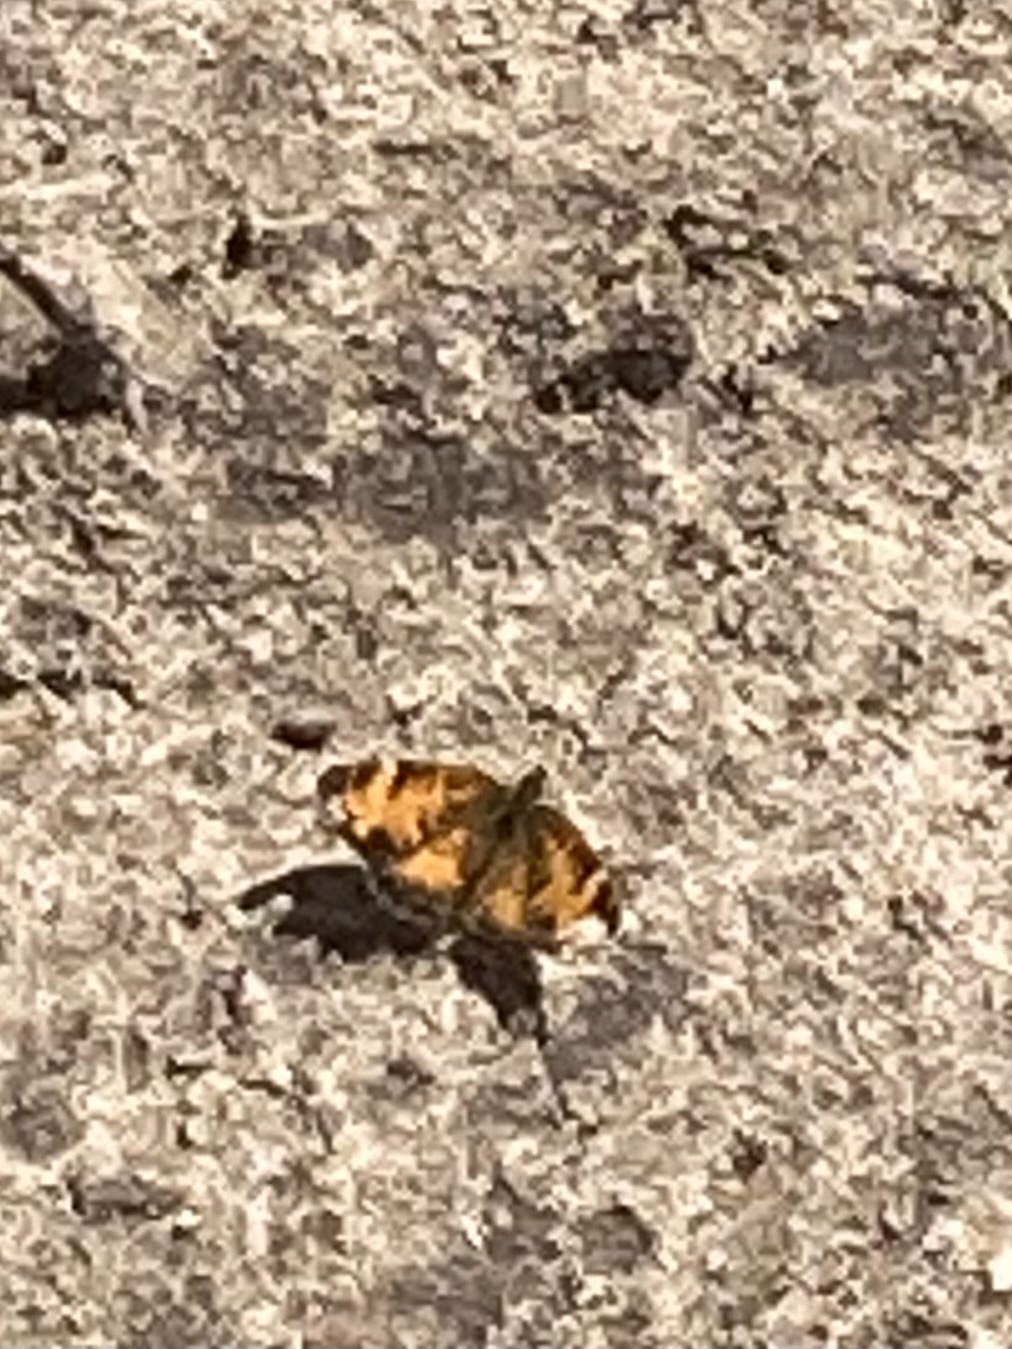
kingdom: Animalia
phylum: Arthropoda
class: Insecta
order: Lepidoptera
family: Nymphalidae
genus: Phyciodes
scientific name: Phyciodes tharos
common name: Pearl crescent
